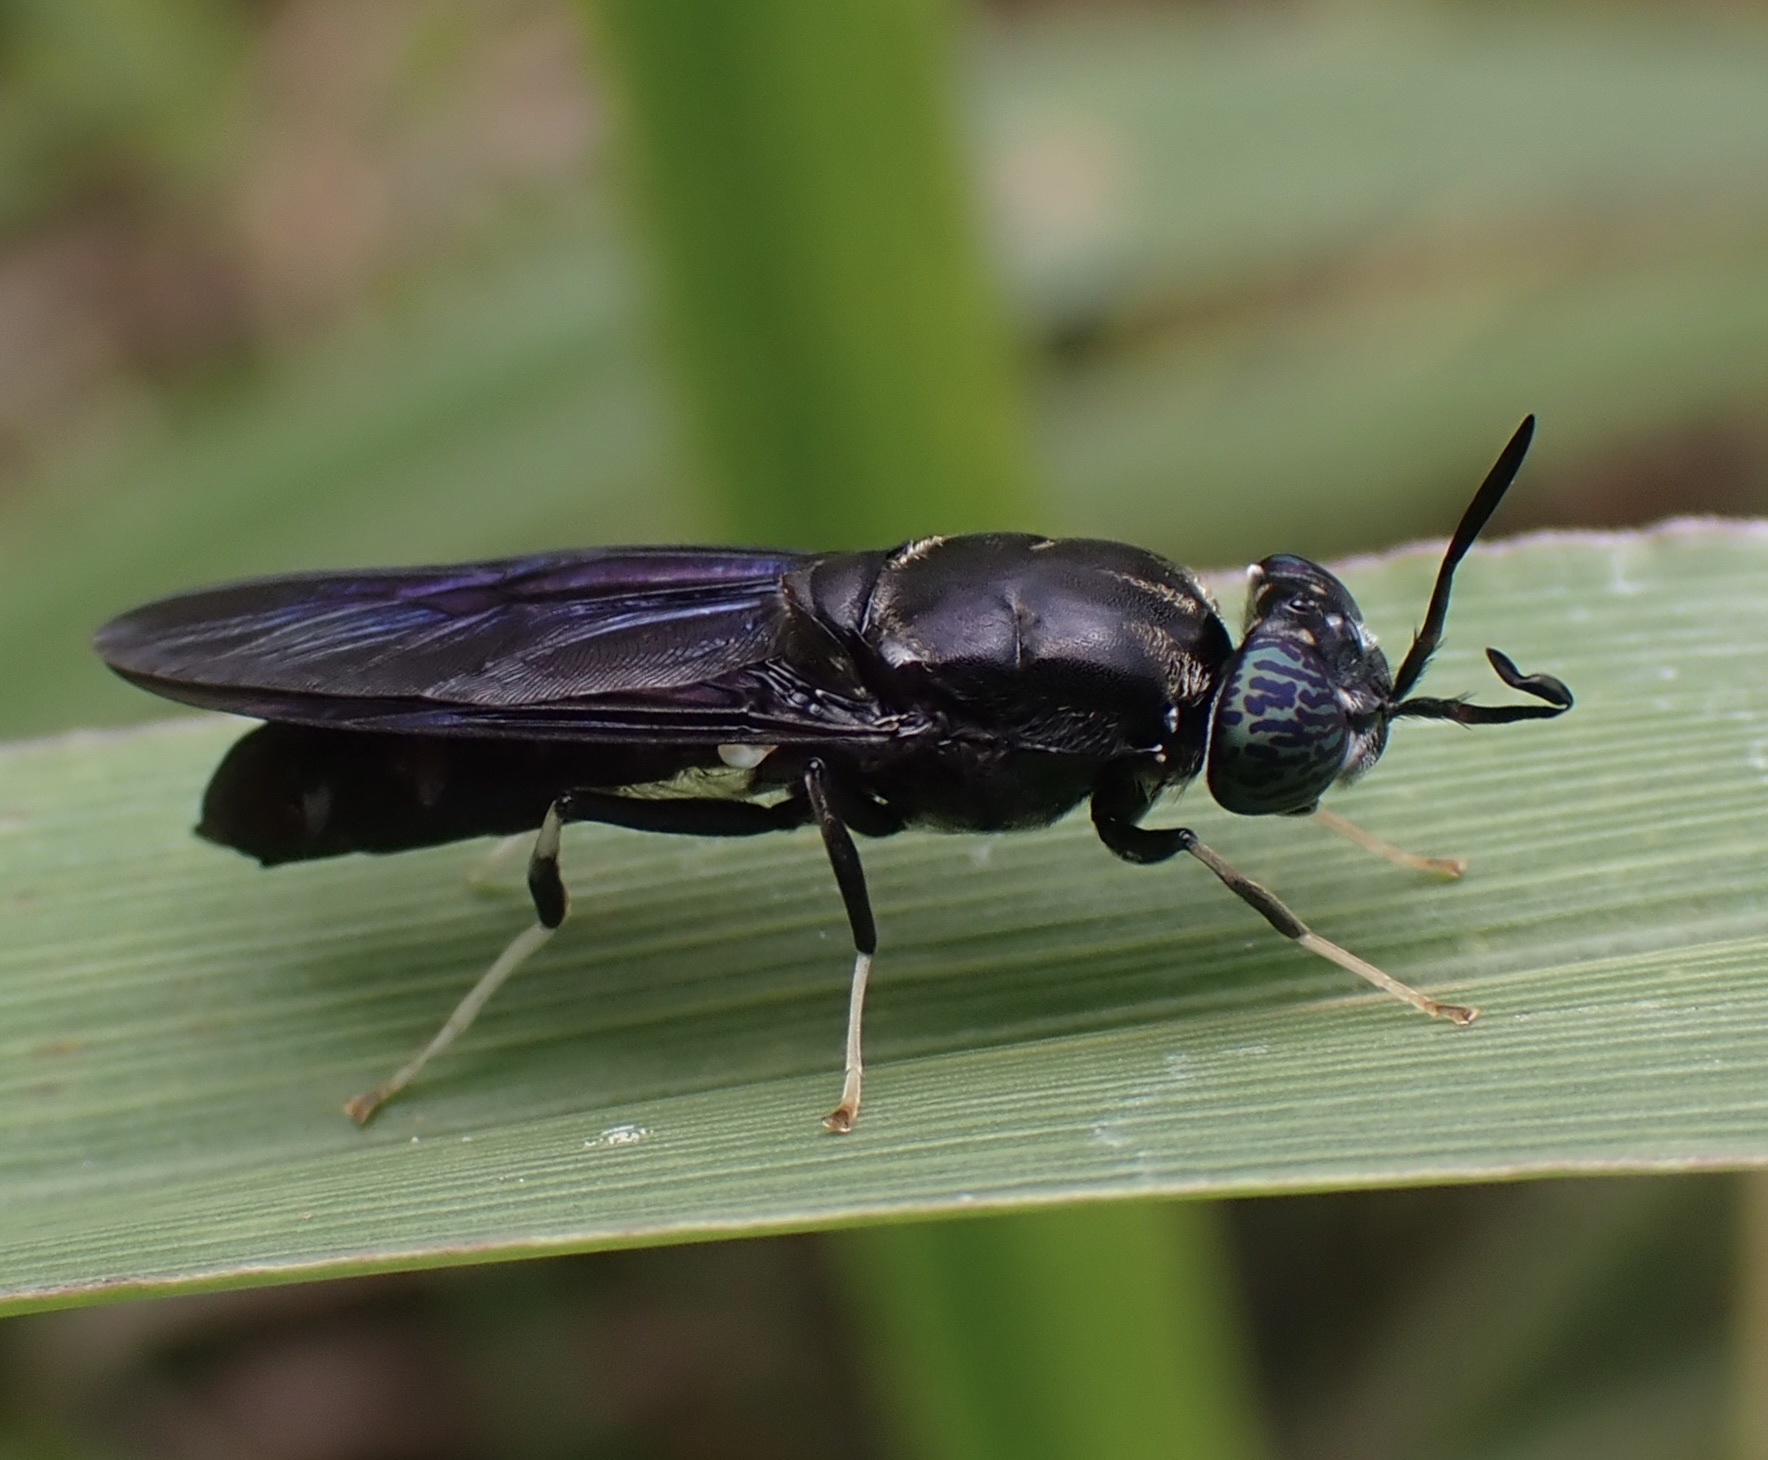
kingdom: Animalia
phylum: Arthropoda
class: Insecta
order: Diptera
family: Stratiomyidae
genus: Hermetia
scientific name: Hermetia illucens
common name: Black soldier fly
